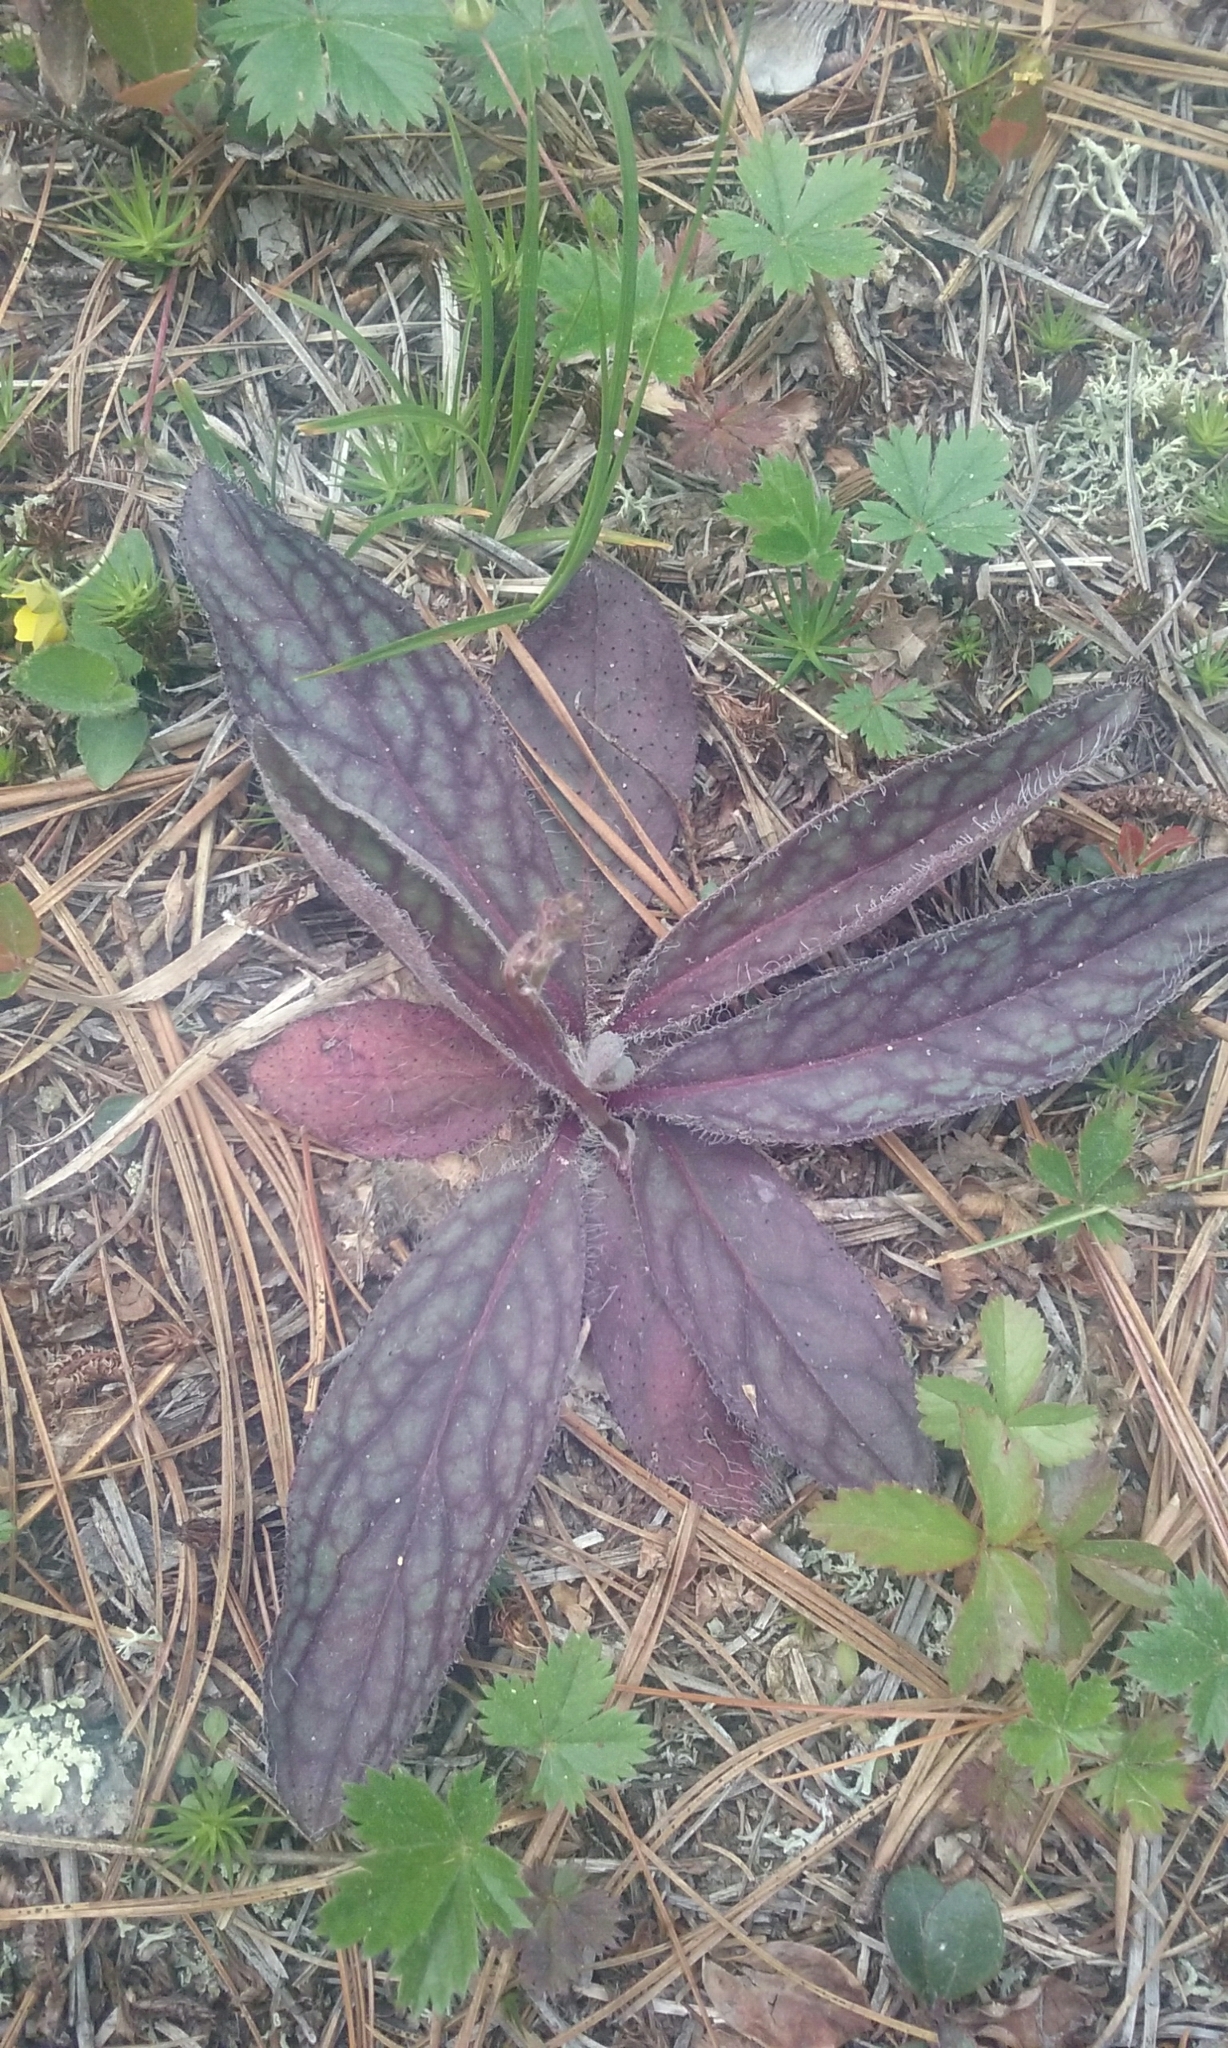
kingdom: Plantae
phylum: Tracheophyta
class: Magnoliopsida
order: Asterales
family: Asteraceae
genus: Hieracium
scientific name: Hieracium venosum
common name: Rattlesnake hawkweed
